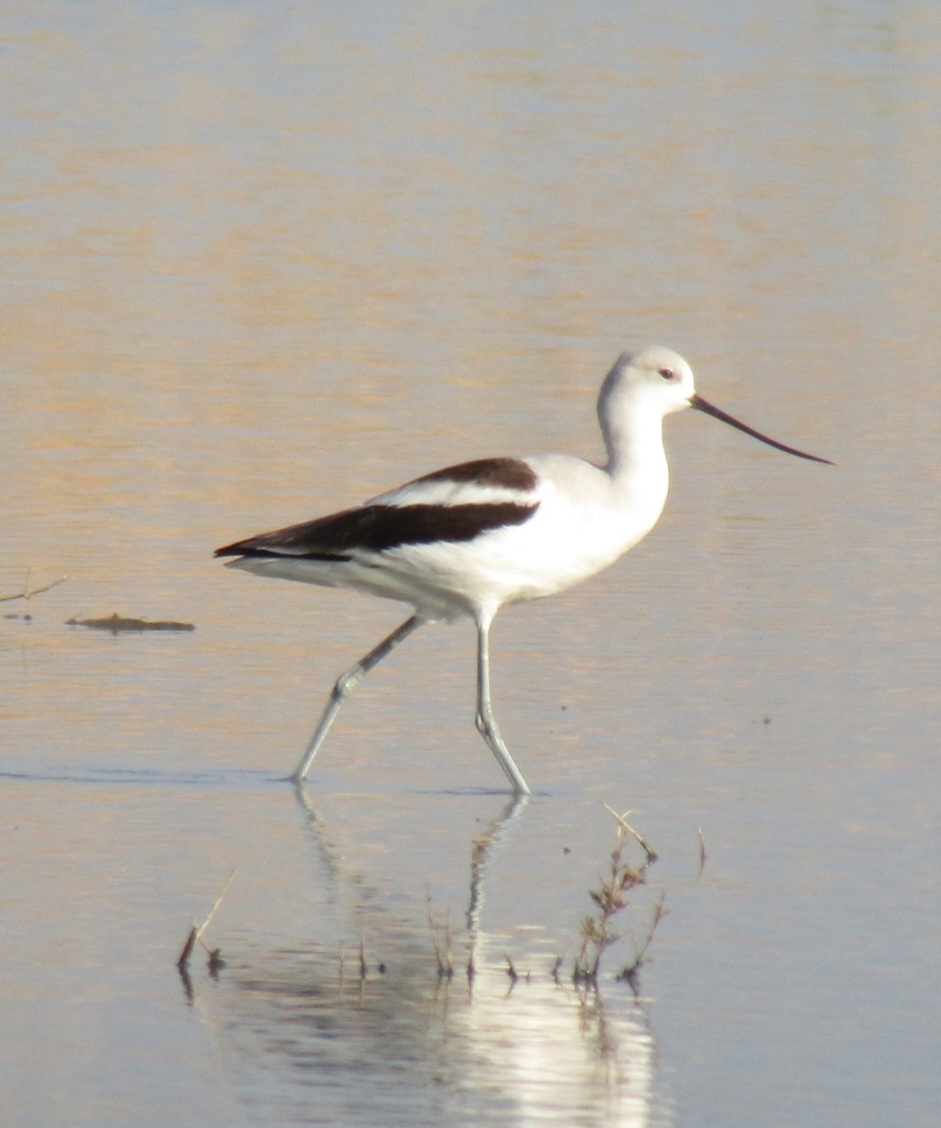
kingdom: Animalia
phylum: Chordata
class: Aves
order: Charadriiformes
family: Recurvirostridae
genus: Recurvirostra
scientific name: Recurvirostra americana
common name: American avocet
